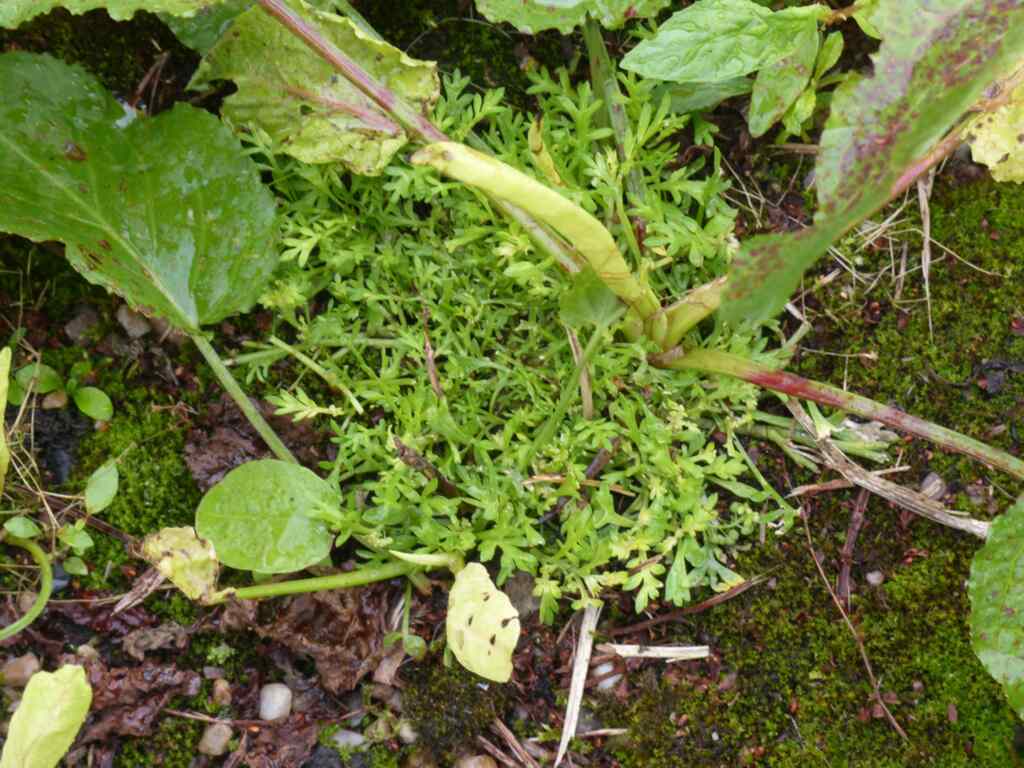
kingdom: Plantae
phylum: Tracheophyta
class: Magnoliopsida
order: Brassicales
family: Brassicaceae
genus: Lepidium
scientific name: Lepidium didymum
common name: Lesser swinecress
